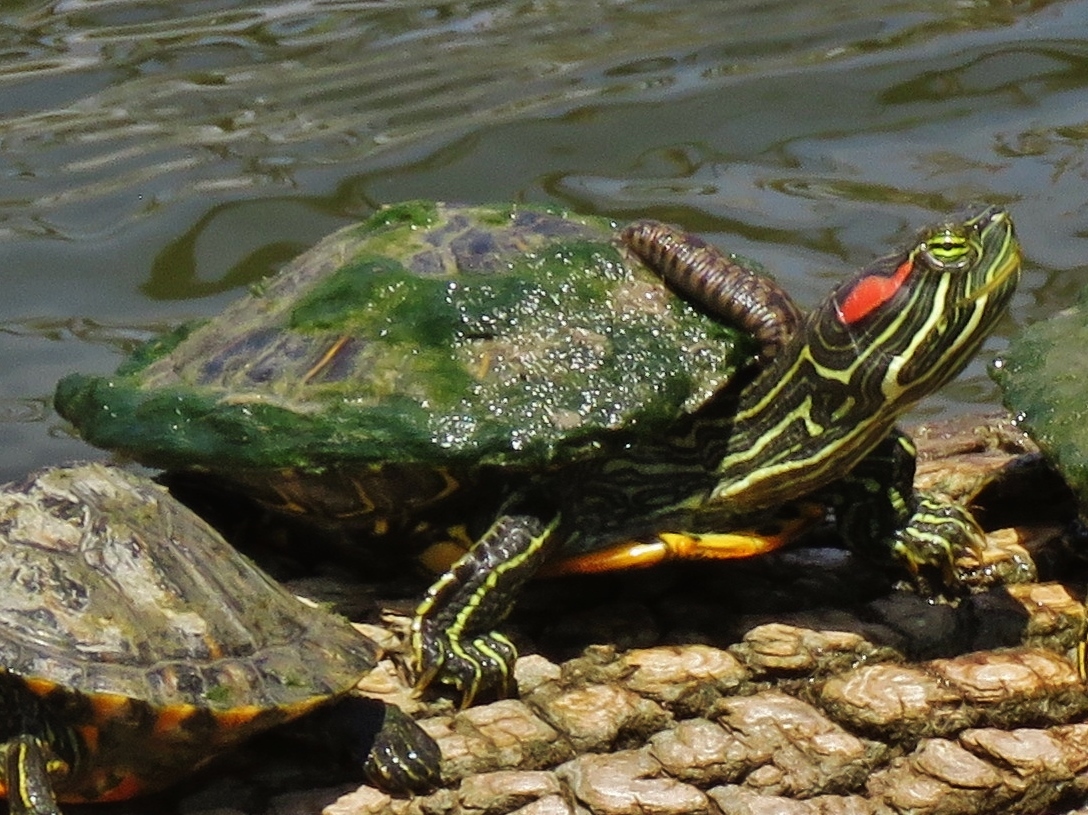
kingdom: Animalia
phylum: Chordata
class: Testudines
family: Emydidae
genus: Trachemys
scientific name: Trachemys scripta
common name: Slider
